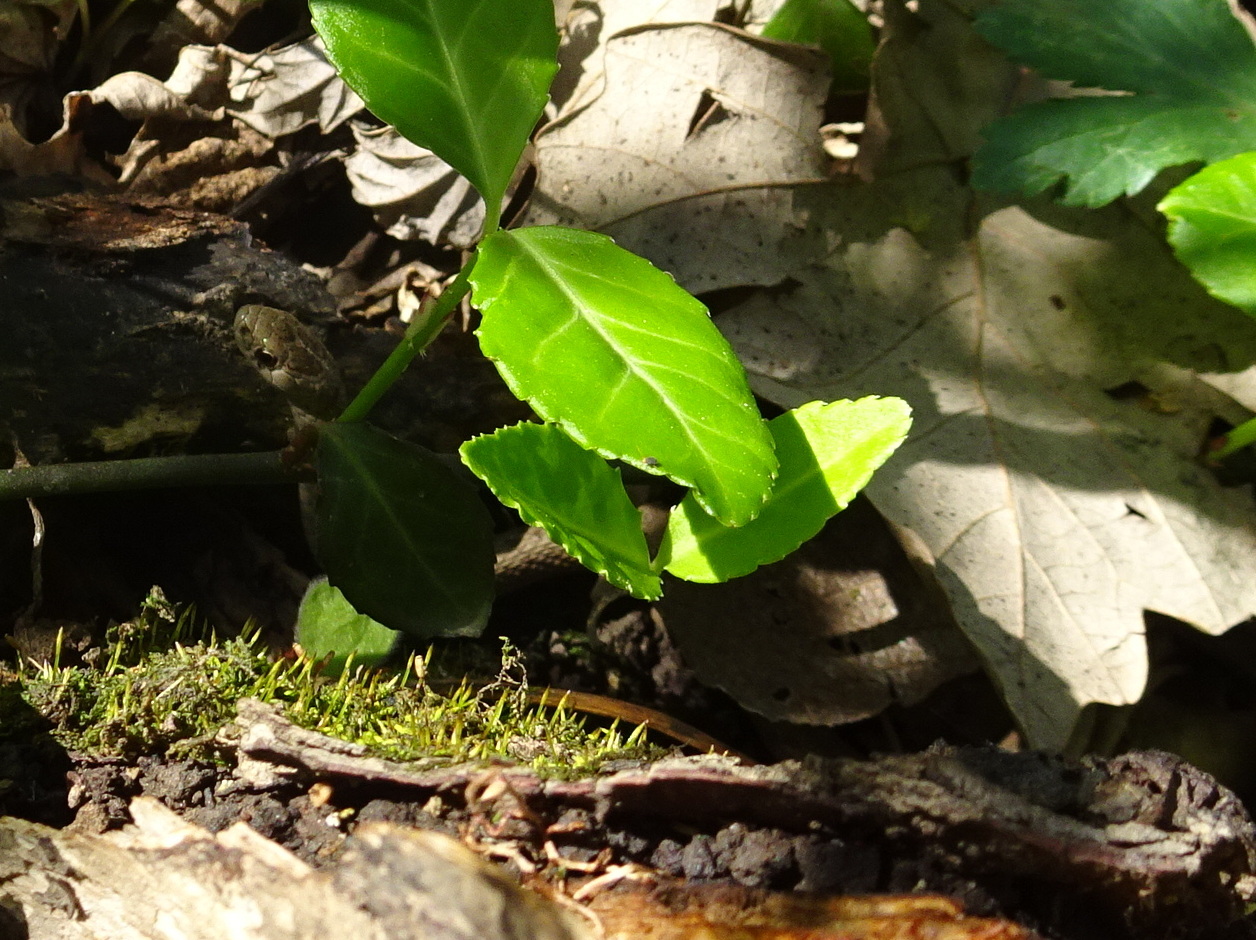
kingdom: Animalia
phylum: Chordata
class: Squamata
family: Colubridae
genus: Storeria
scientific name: Storeria dekayi
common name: (dekay’s) brown snake
